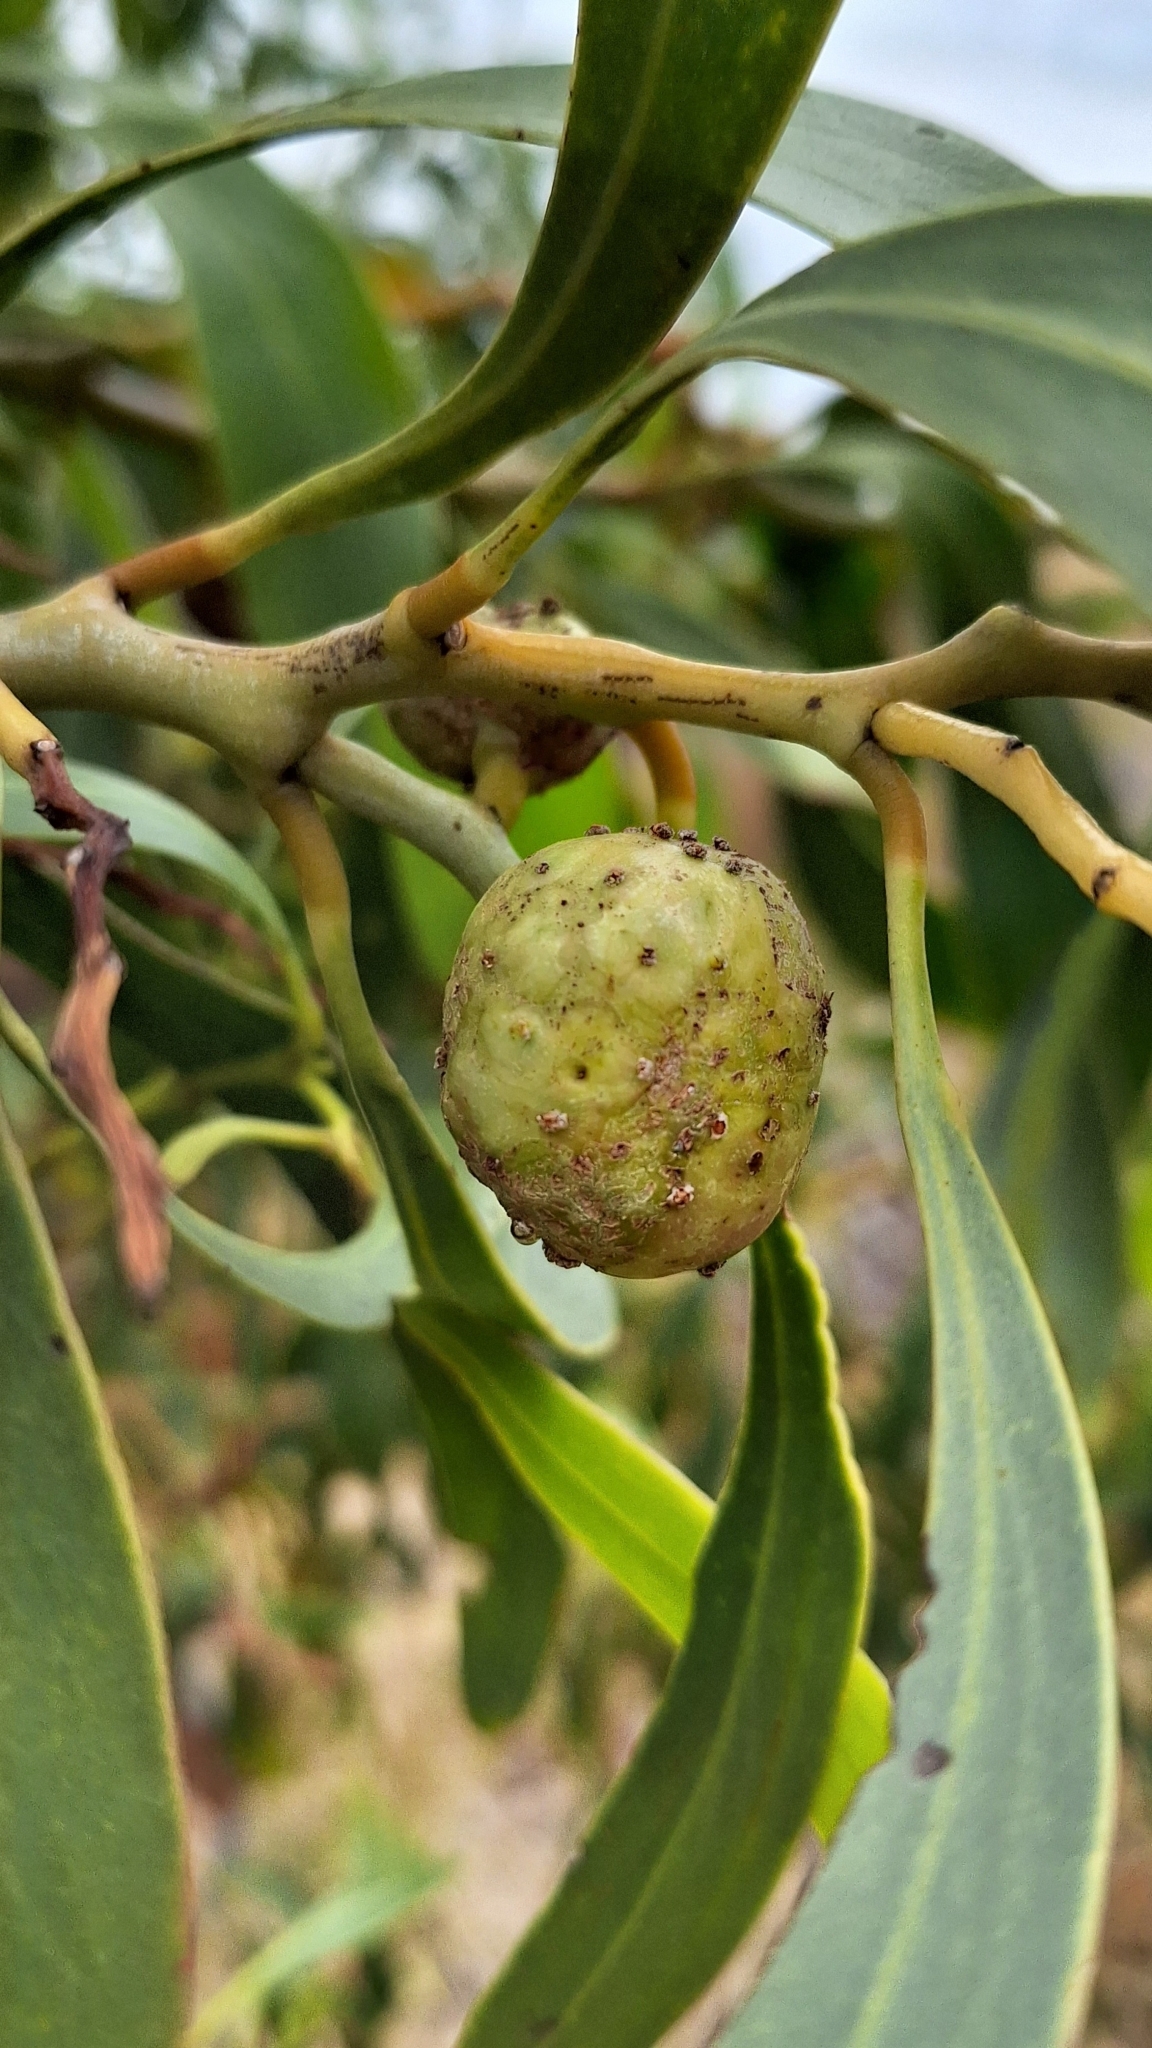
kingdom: Animalia
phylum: Arthropoda
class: Insecta
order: Hymenoptera
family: Pteromalidae
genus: Trichilogaster
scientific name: Trichilogaster signiventris
